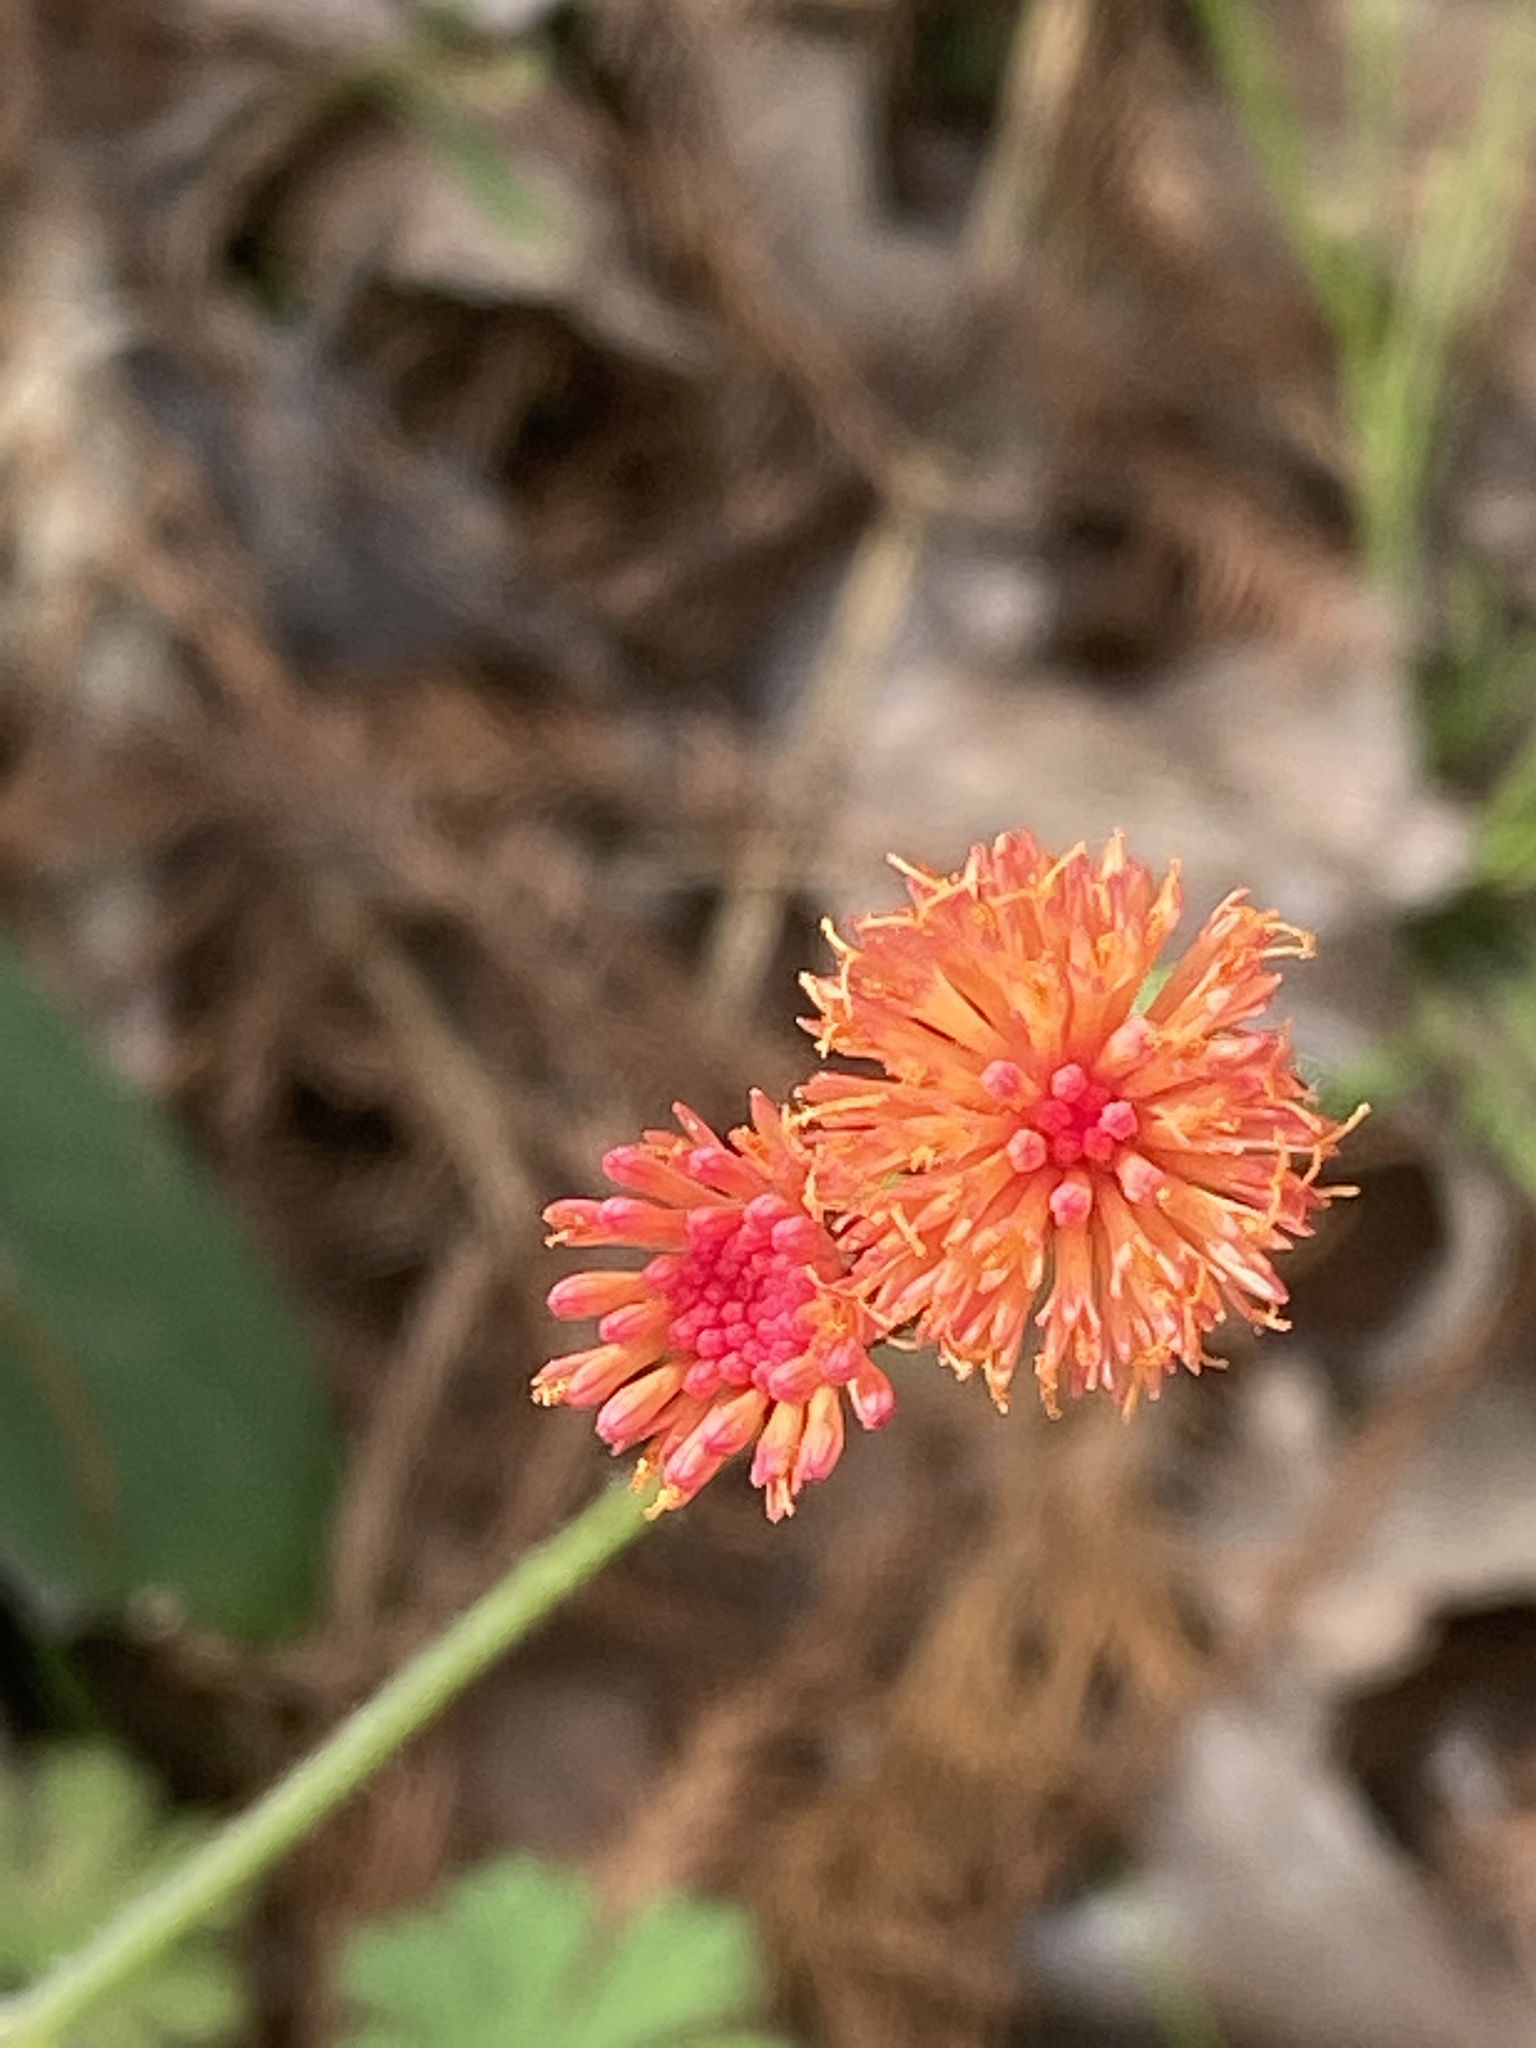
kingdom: Plantae
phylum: Tracheophyta
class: Magnoliopsida
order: Asterales
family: Asteraceae
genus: Emilia
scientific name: Emilia fosbergii
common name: Florida tasselflower
